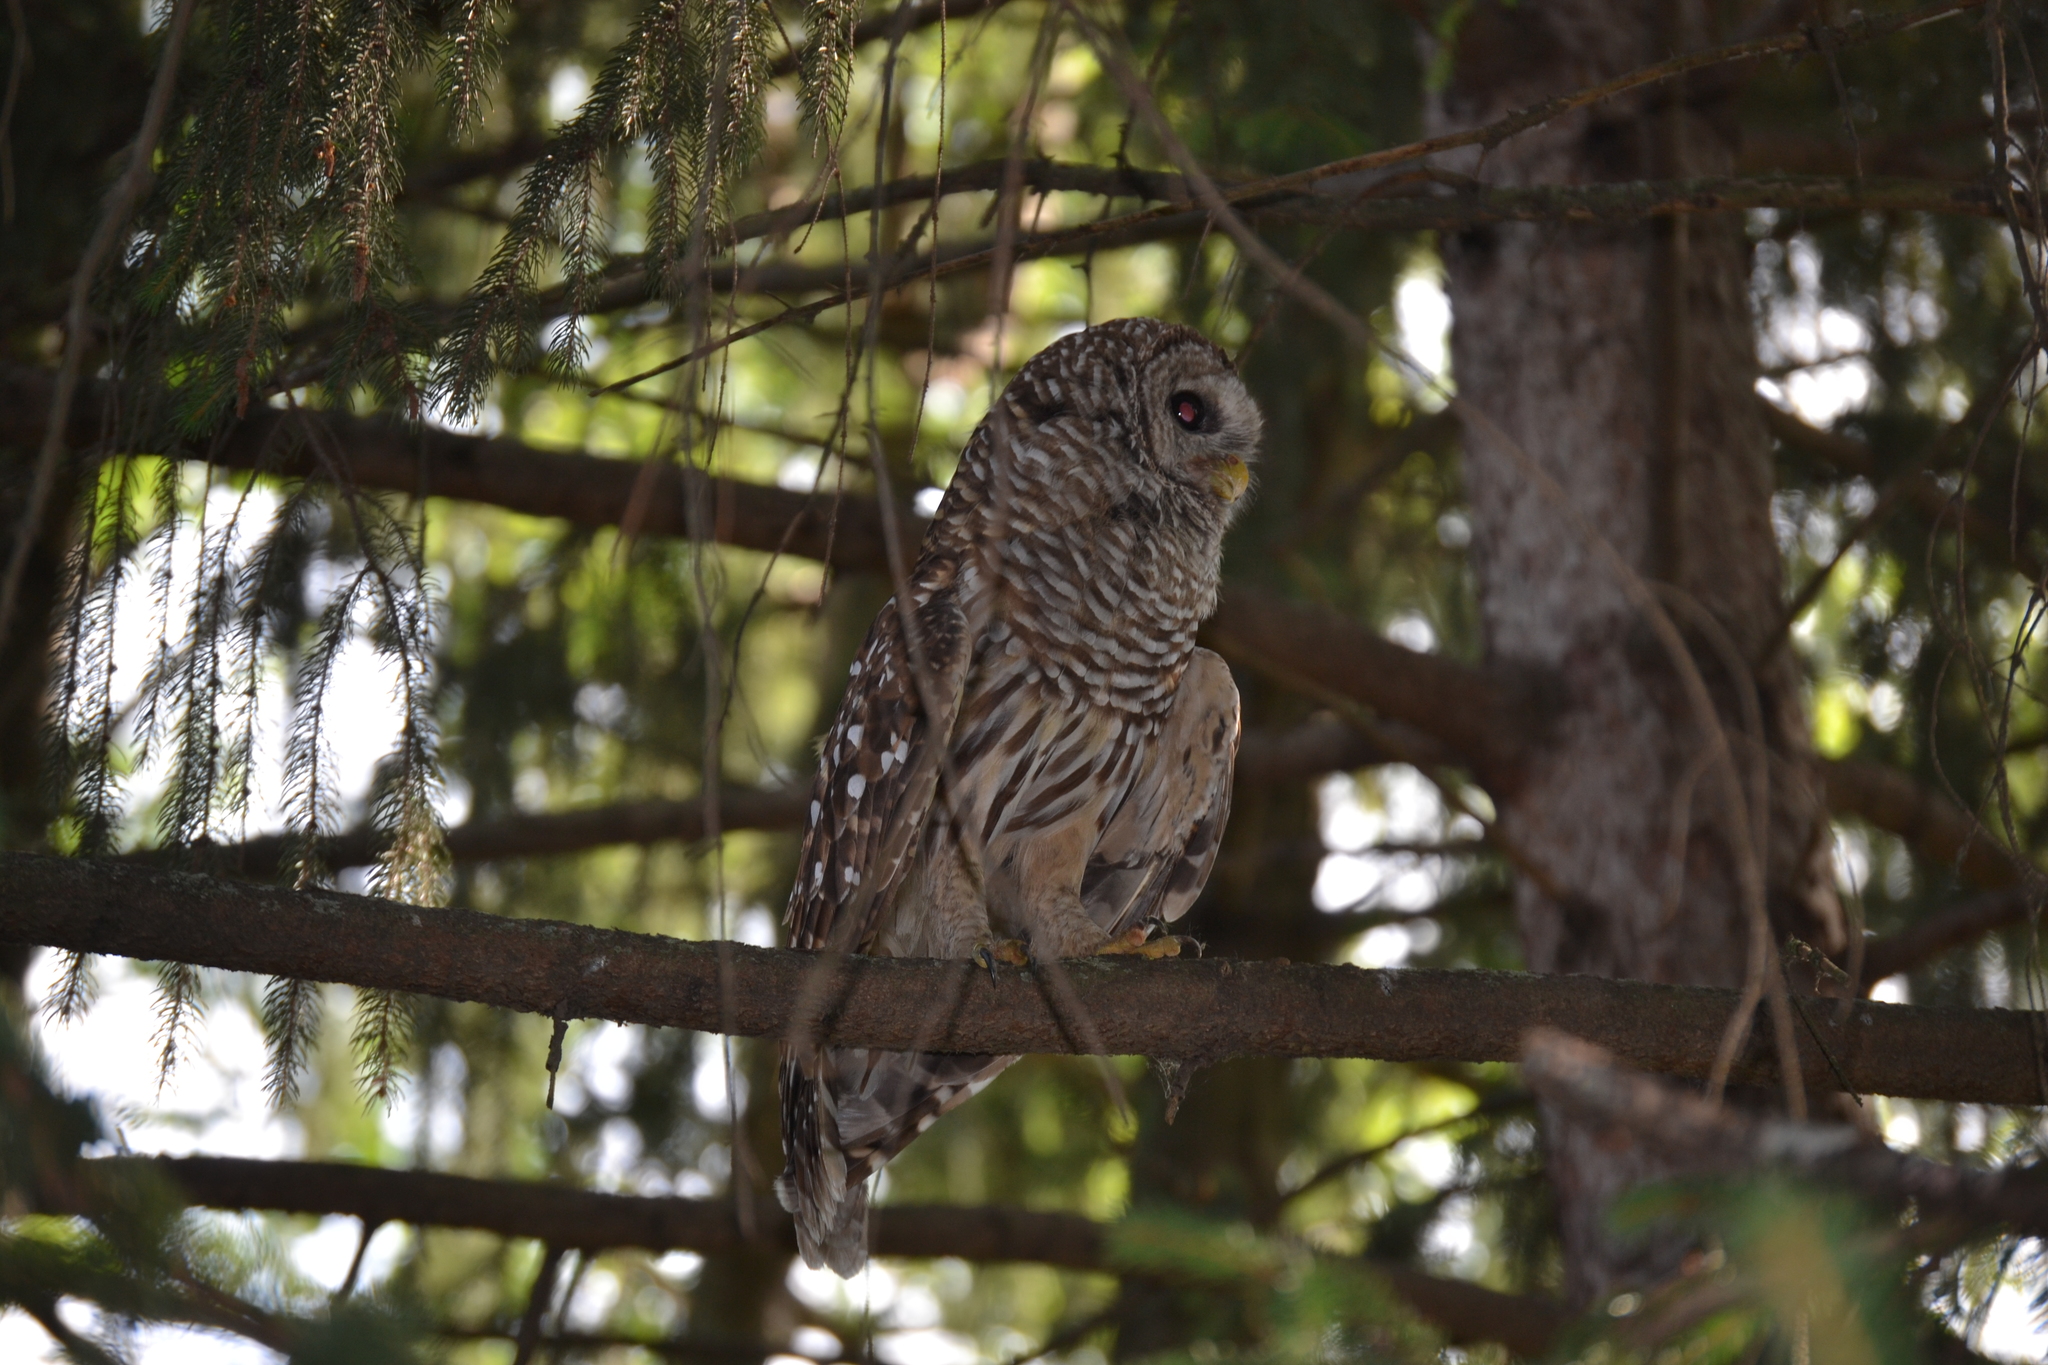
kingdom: Animalia
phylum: Chordata
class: Aves
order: Strigiformes
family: Strigidae
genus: Strix
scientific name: Strix varia
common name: Barred owl
